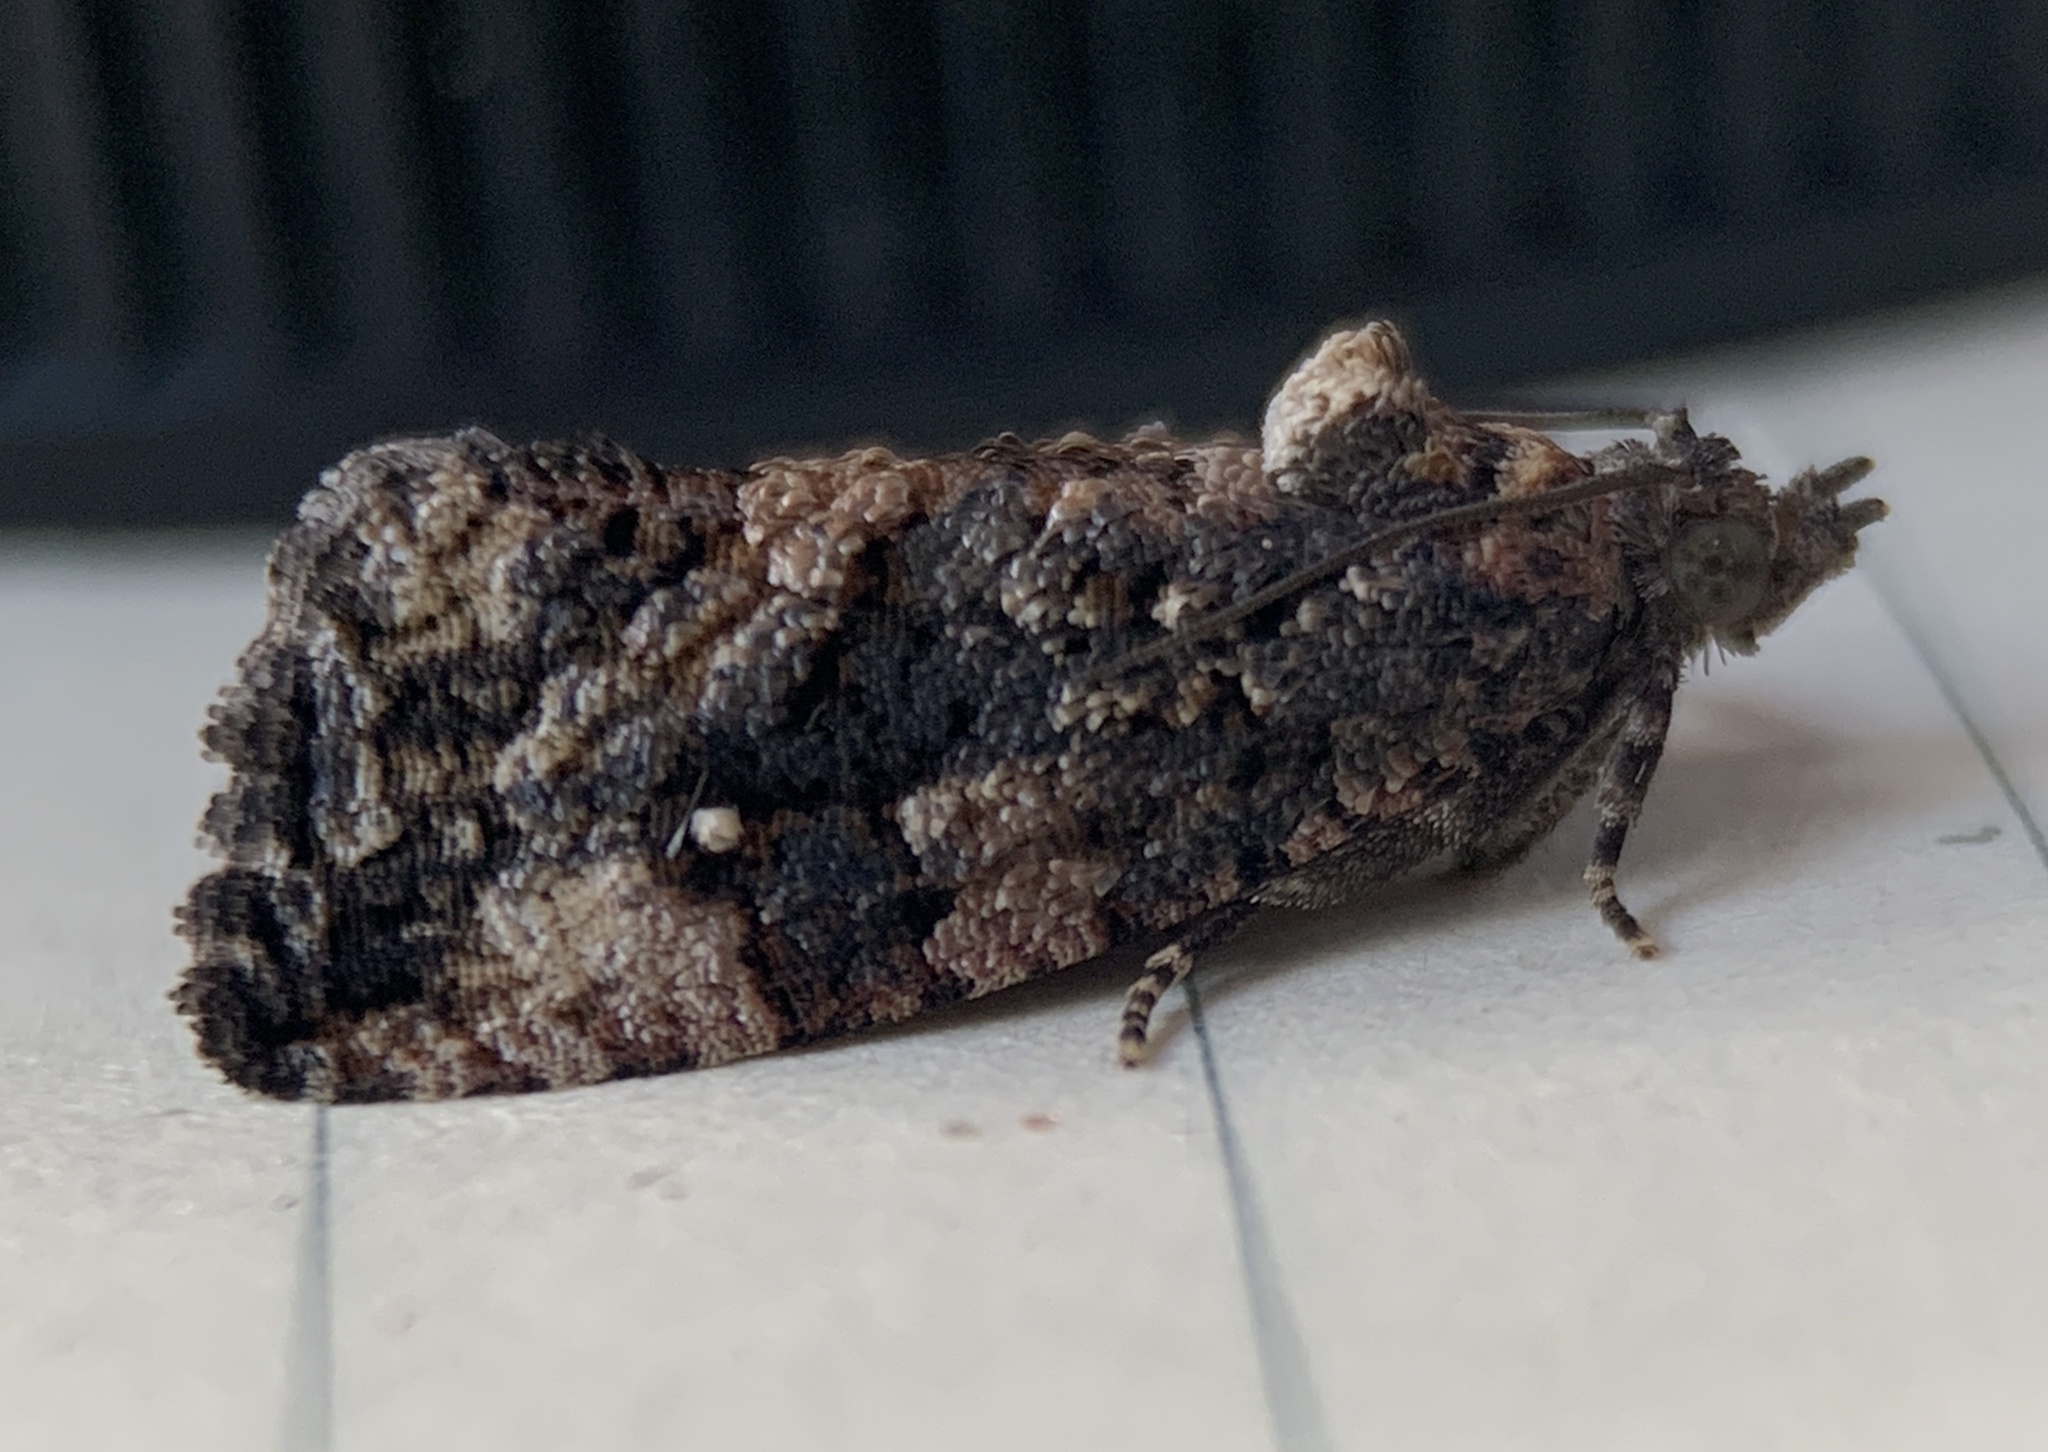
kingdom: Animalia
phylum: Arthropoda
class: Insecta
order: Lepidoptera
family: Tortricidae
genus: Gymnandrosoma
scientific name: Gymnandrosoma punctidiscanum
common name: Dotted ecdytolopha moth
